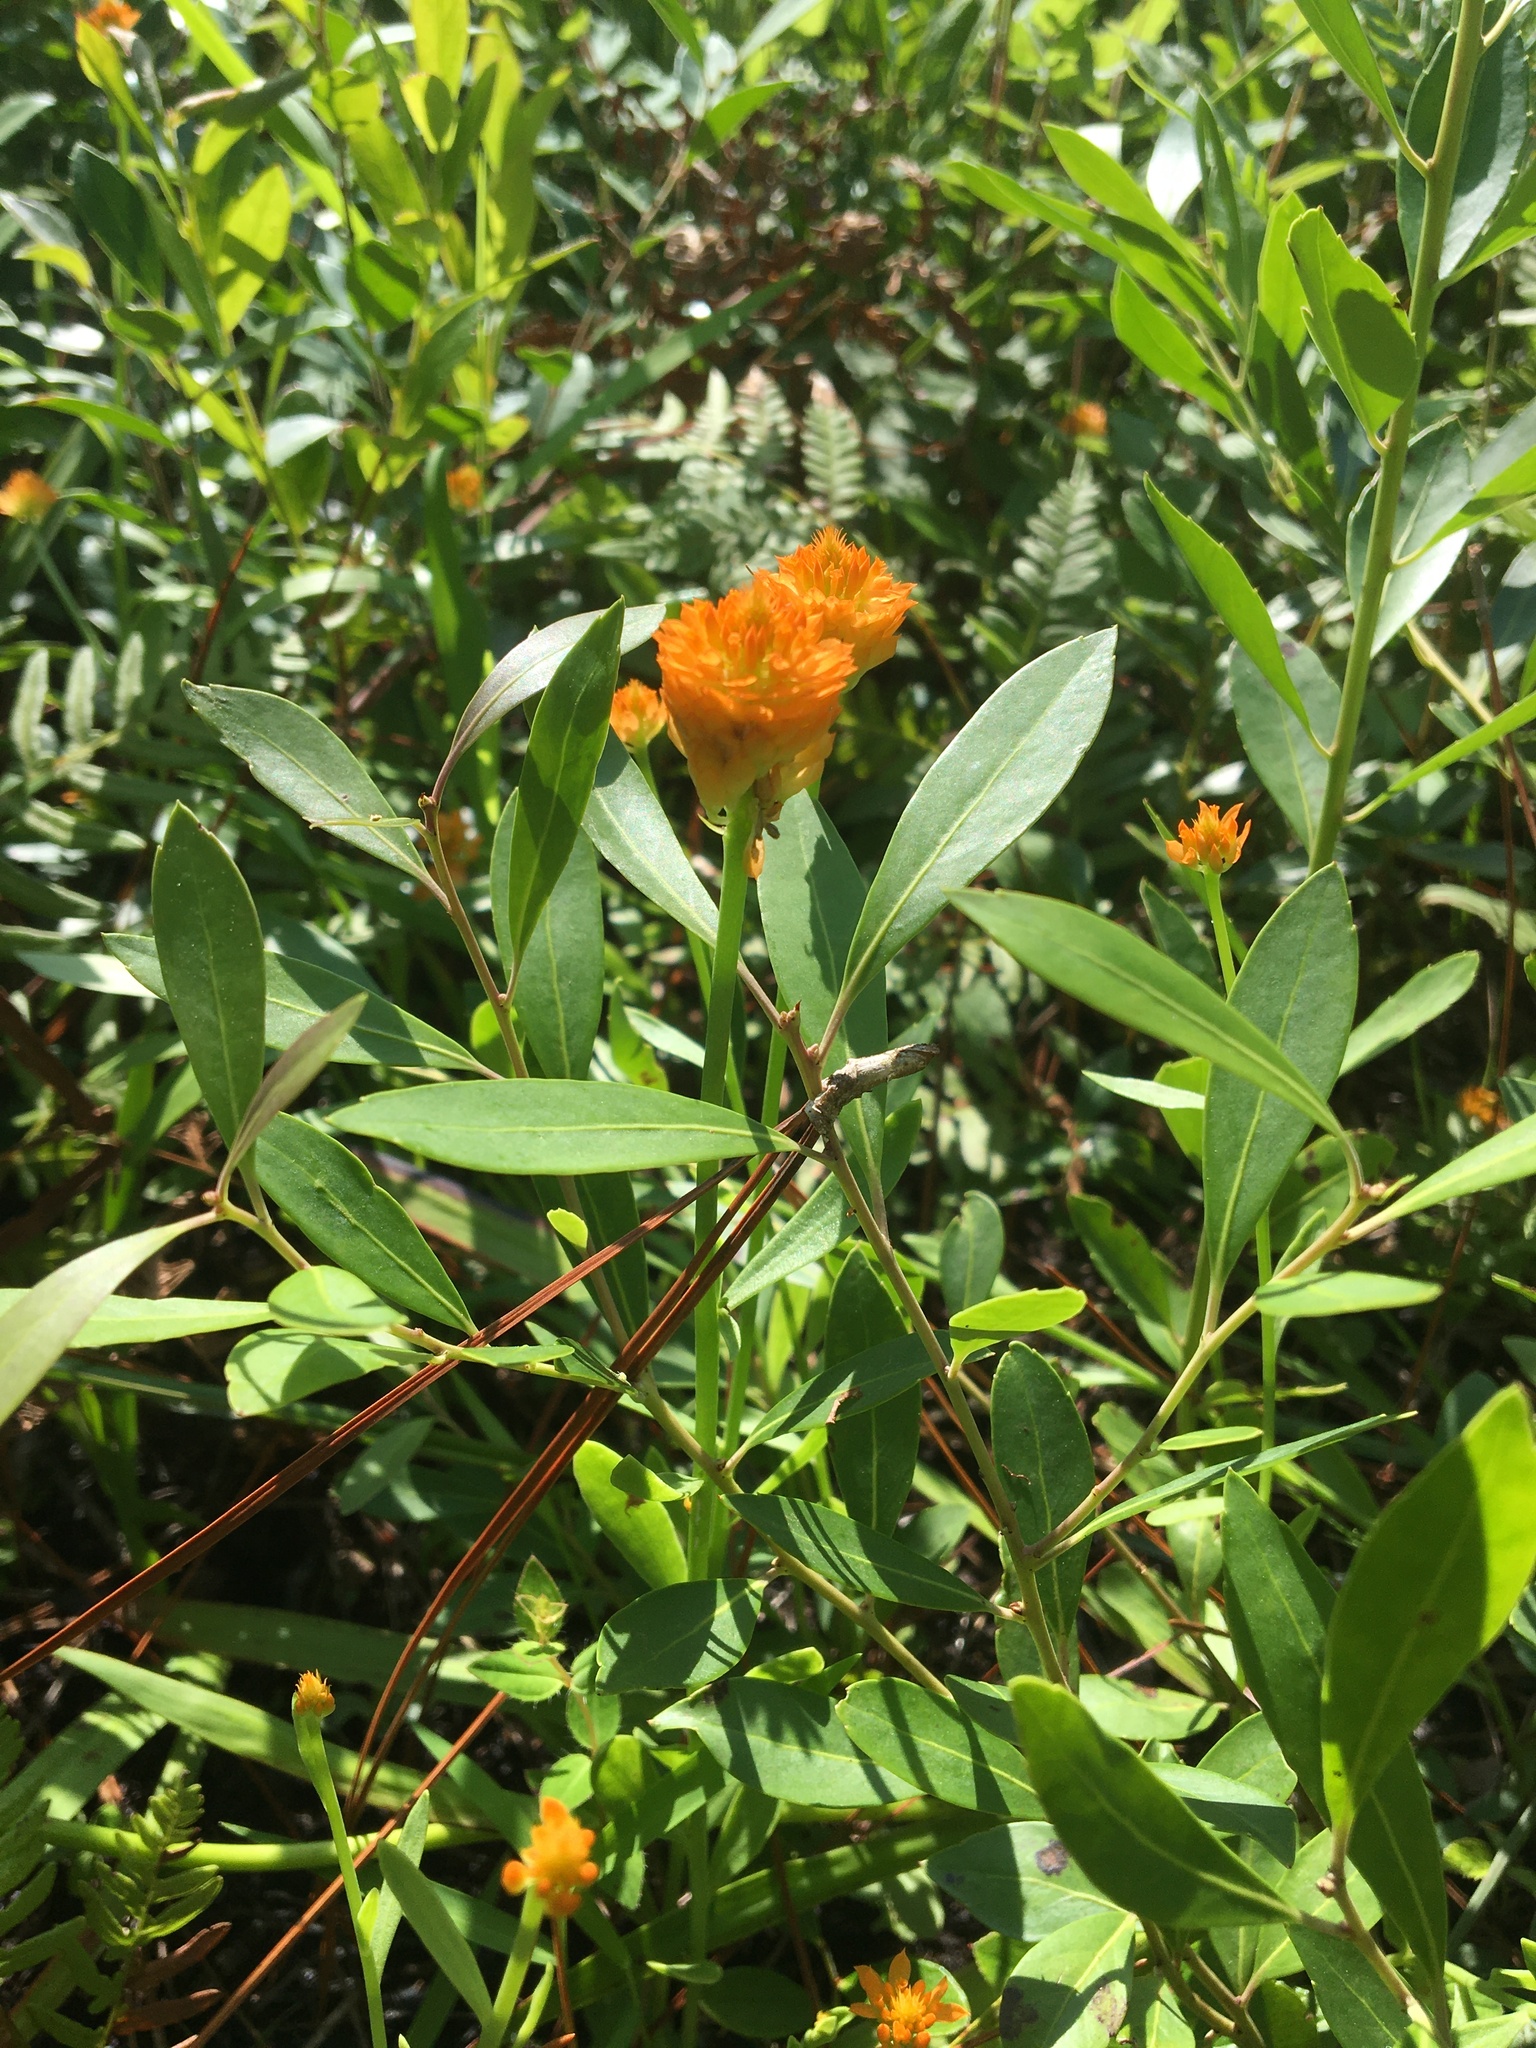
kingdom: Plantae
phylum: Tracheophyta
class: Magnoliopsida
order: Fabales
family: Polygalaceae
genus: Polygala
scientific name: Polygala lutea
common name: Orange milkwort
